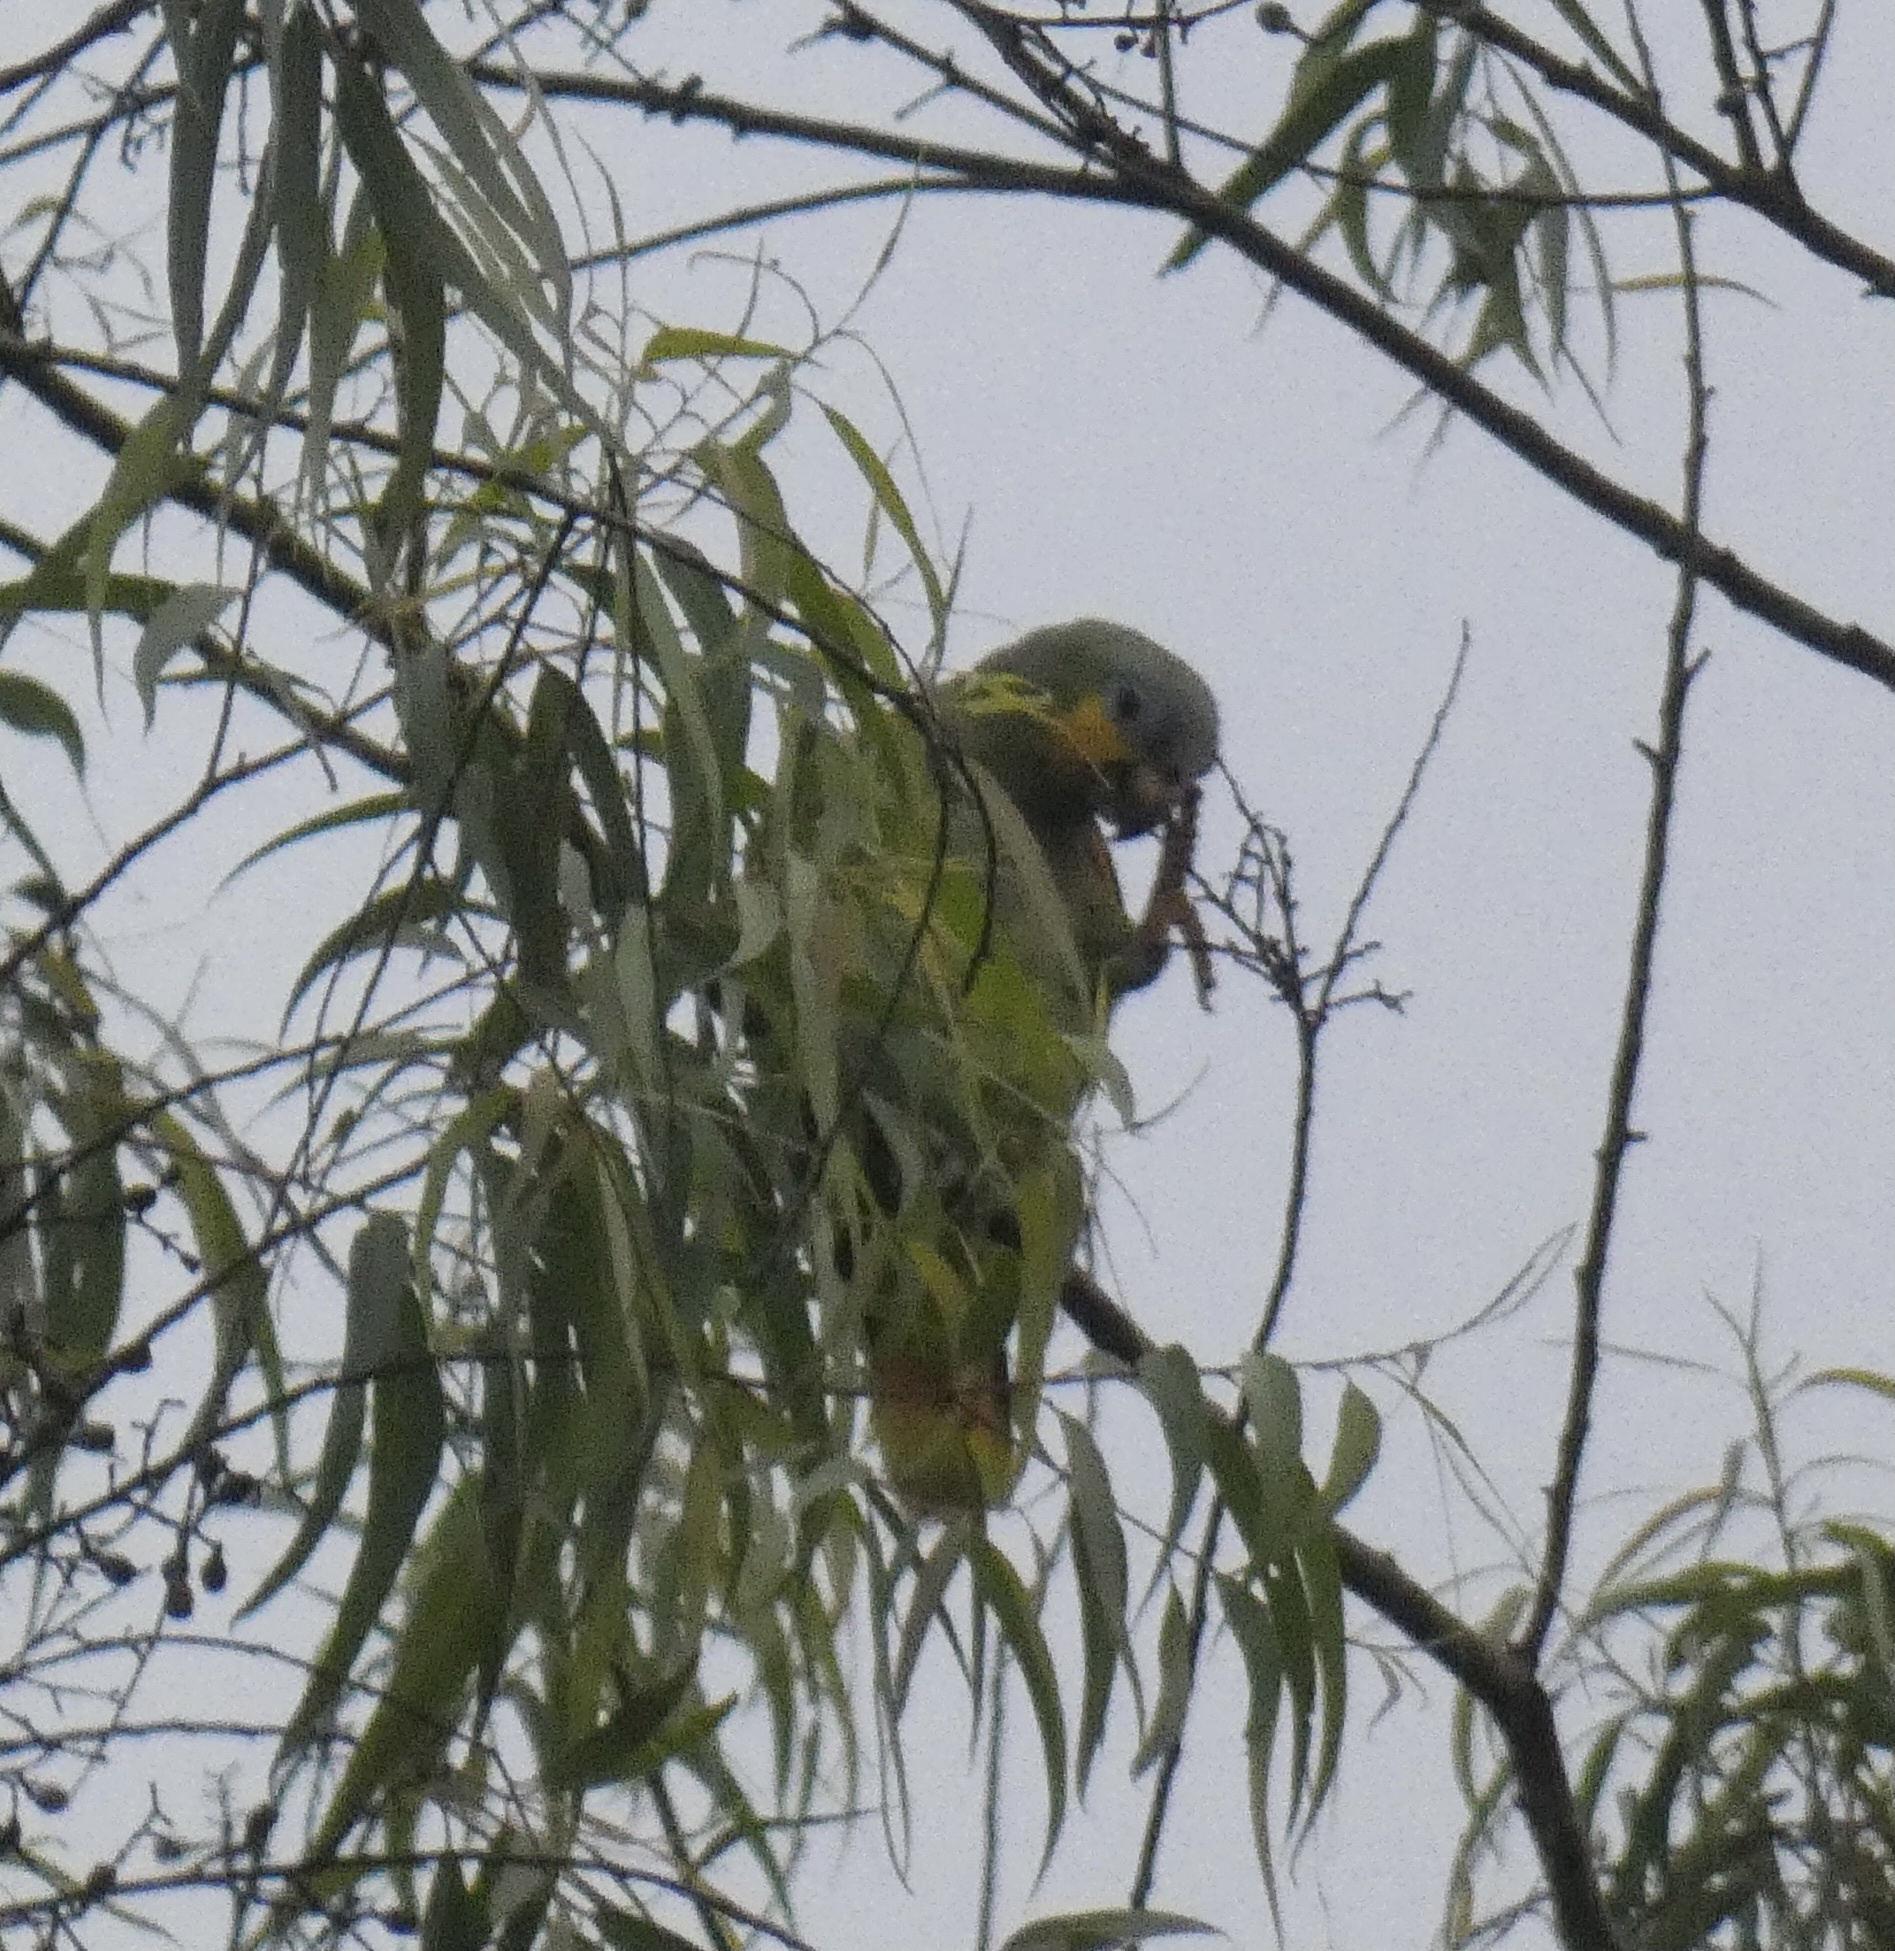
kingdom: Animalia
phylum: Chordata
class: Aves
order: Psittaciformes
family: Psittacidae
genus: Amazona
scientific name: Amazona amazonica
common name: Orange-winged amazon
